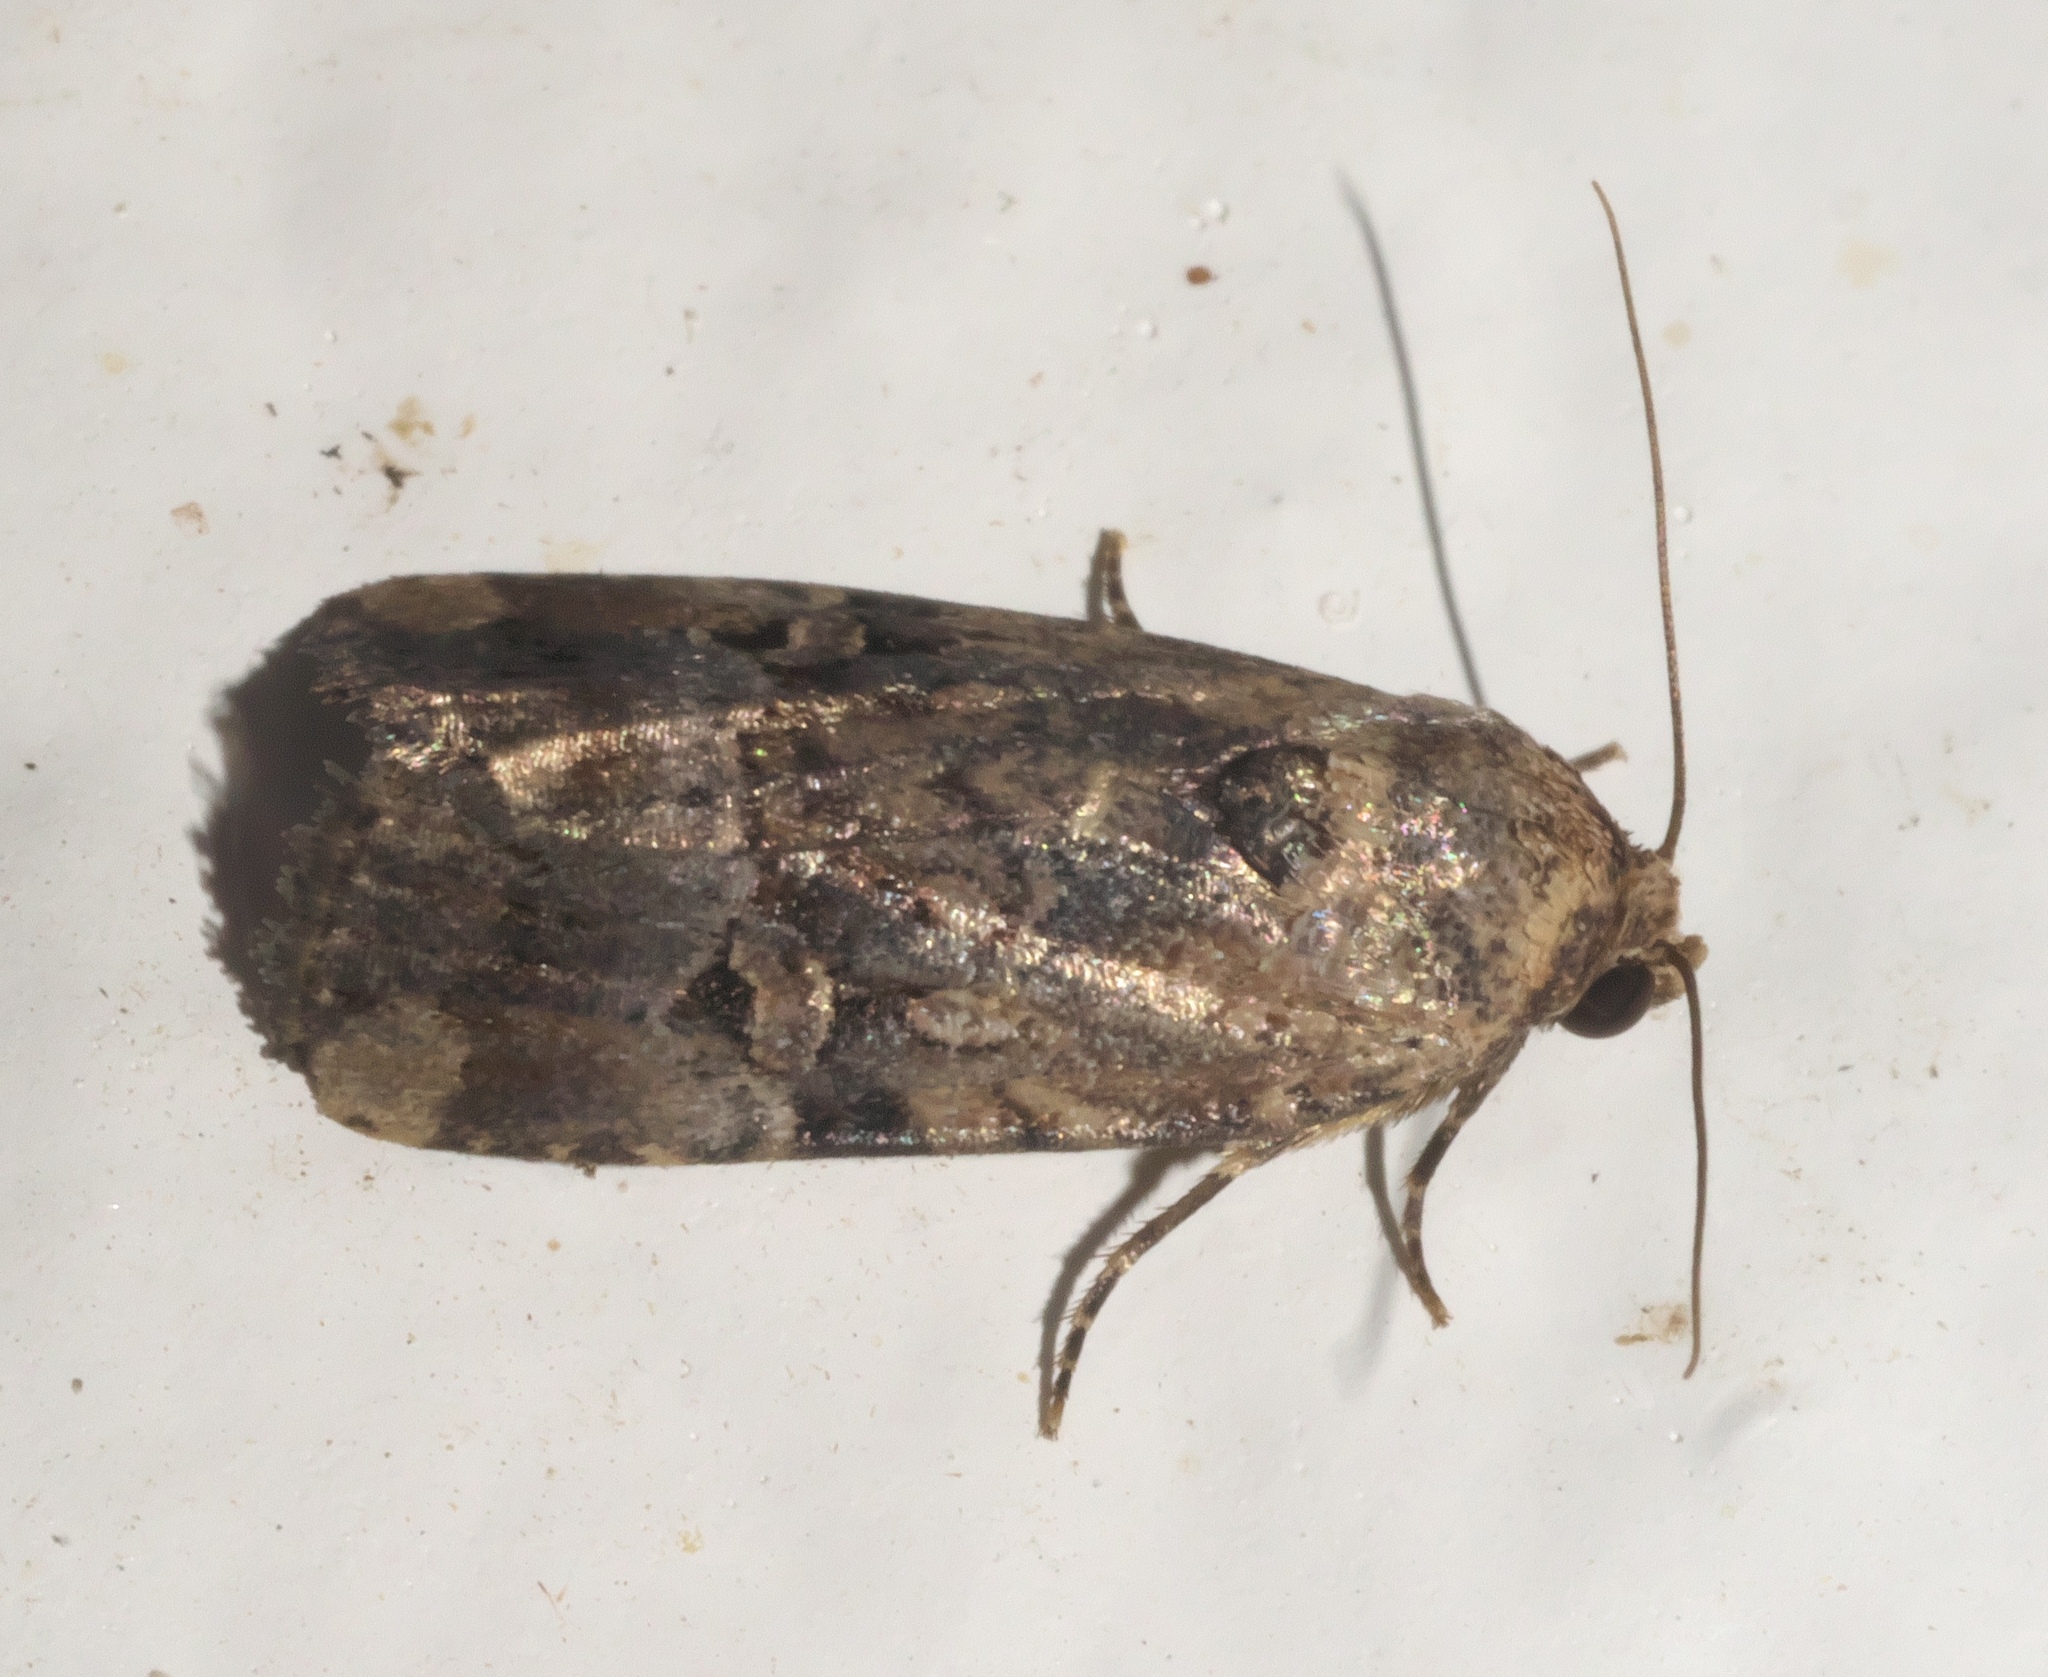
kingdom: Animalia
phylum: Arthropoda
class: Insecta
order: Lepidoptera
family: Noctuidae
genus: Elaphria
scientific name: Elaphria chalcedonia
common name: Chalcedony midget
